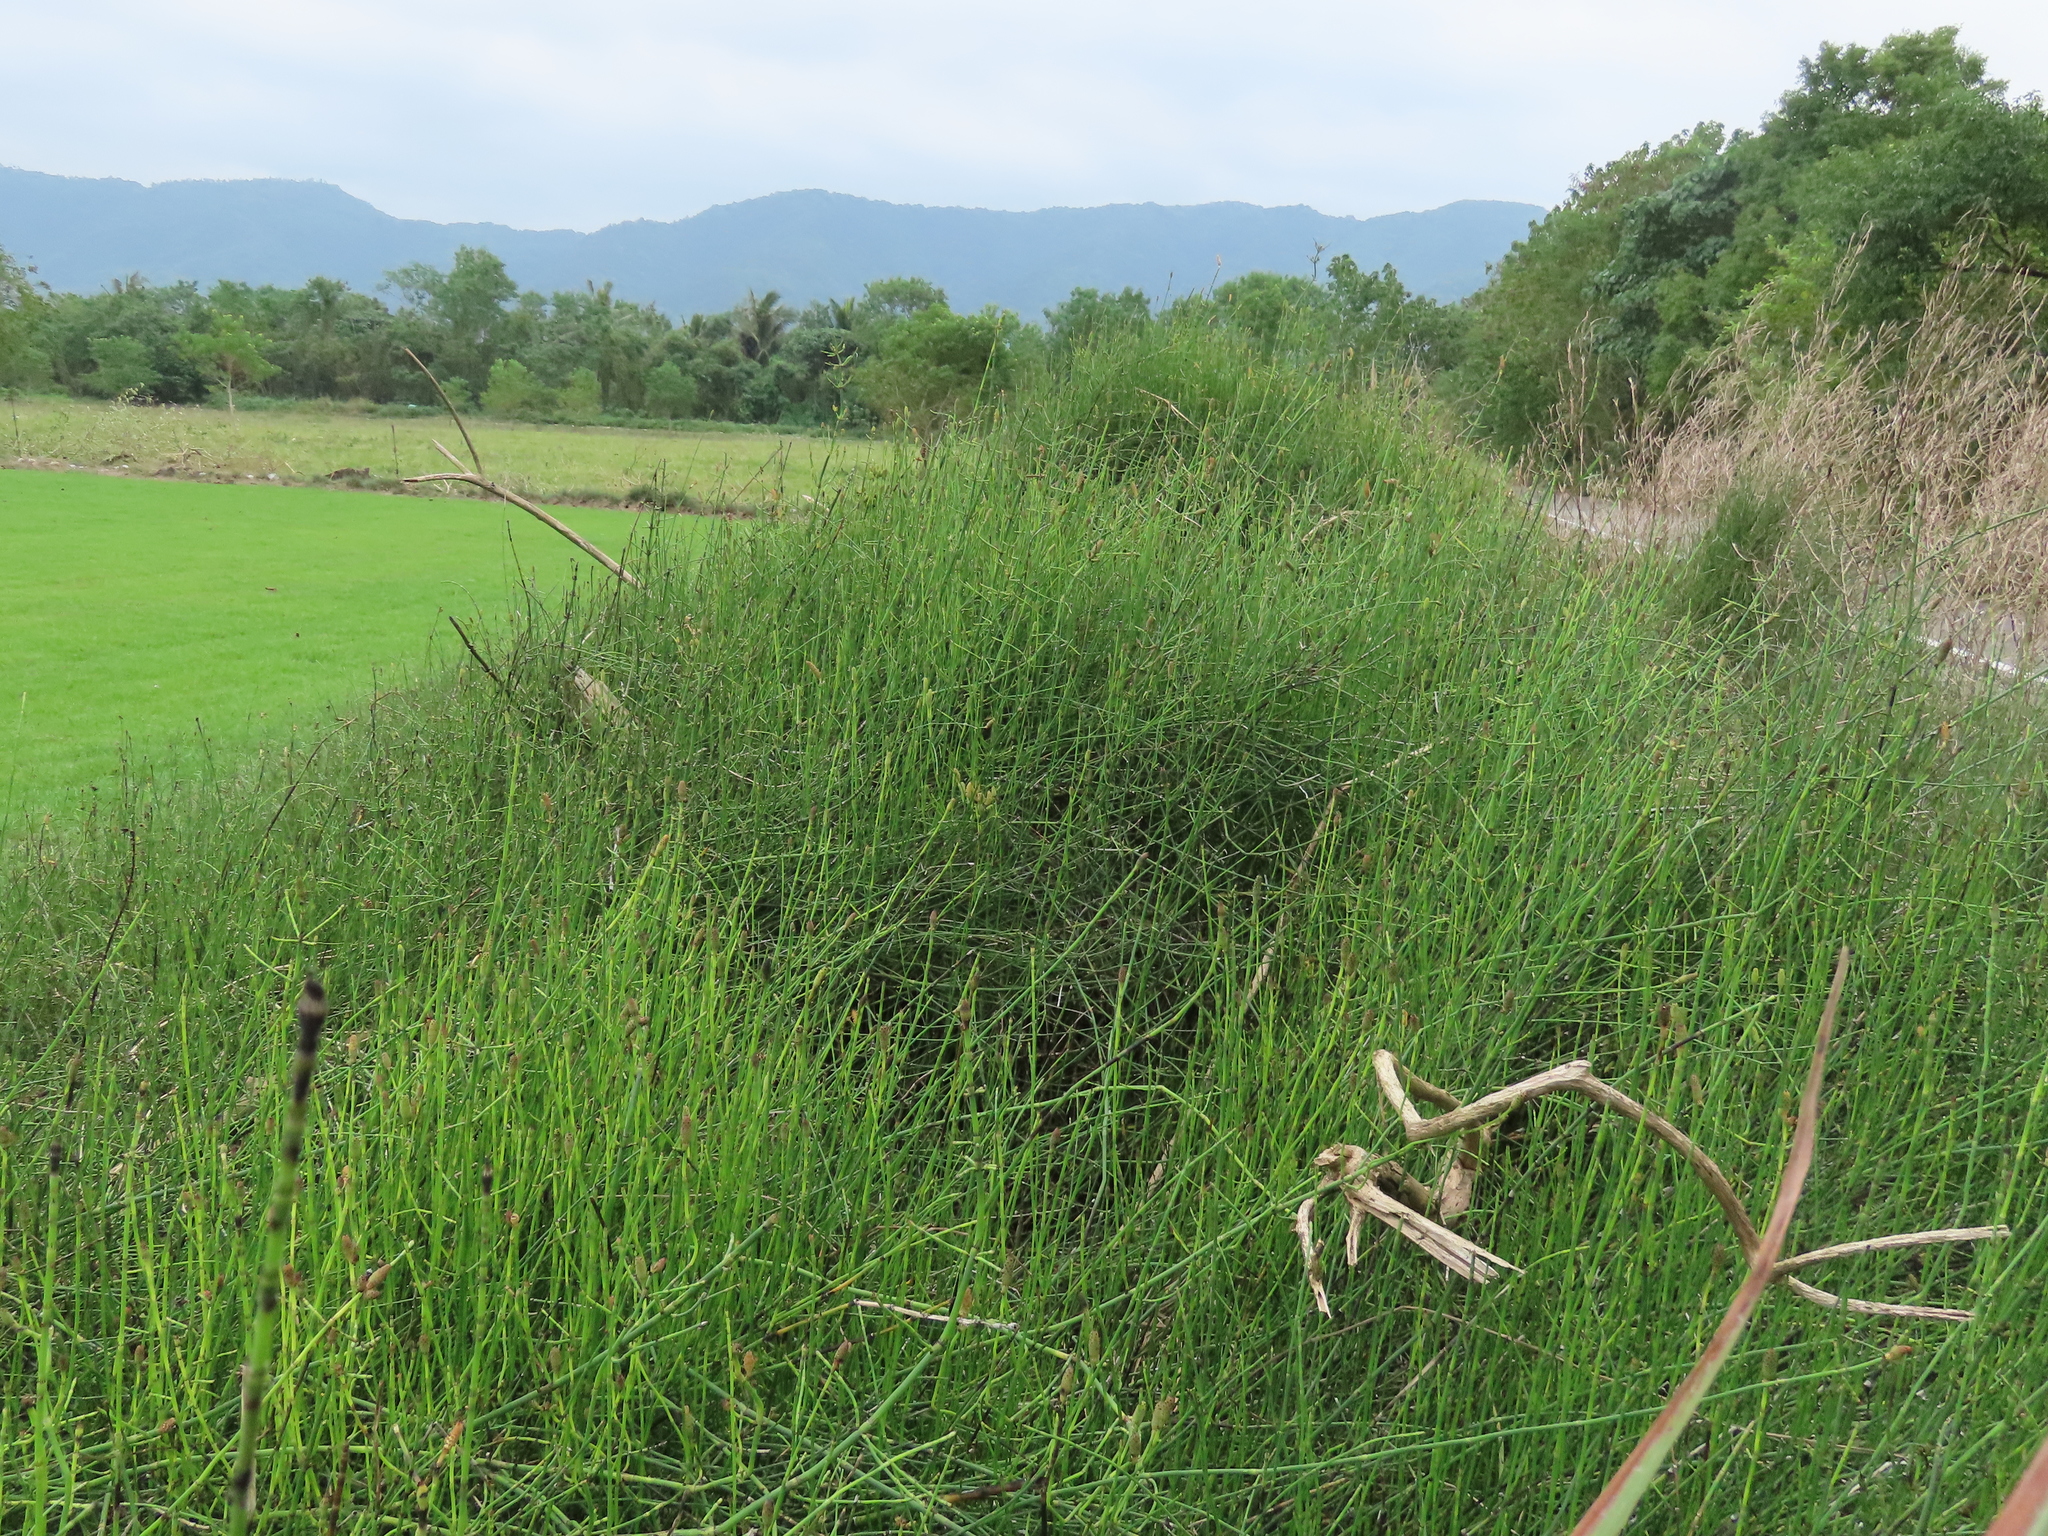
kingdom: Plantae
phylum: Tracheophyta
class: Polypodiopsida
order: Equisetales
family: Equisetaceae
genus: Equisetum
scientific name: Equisetum ramosissimum
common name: Branched horsetail
